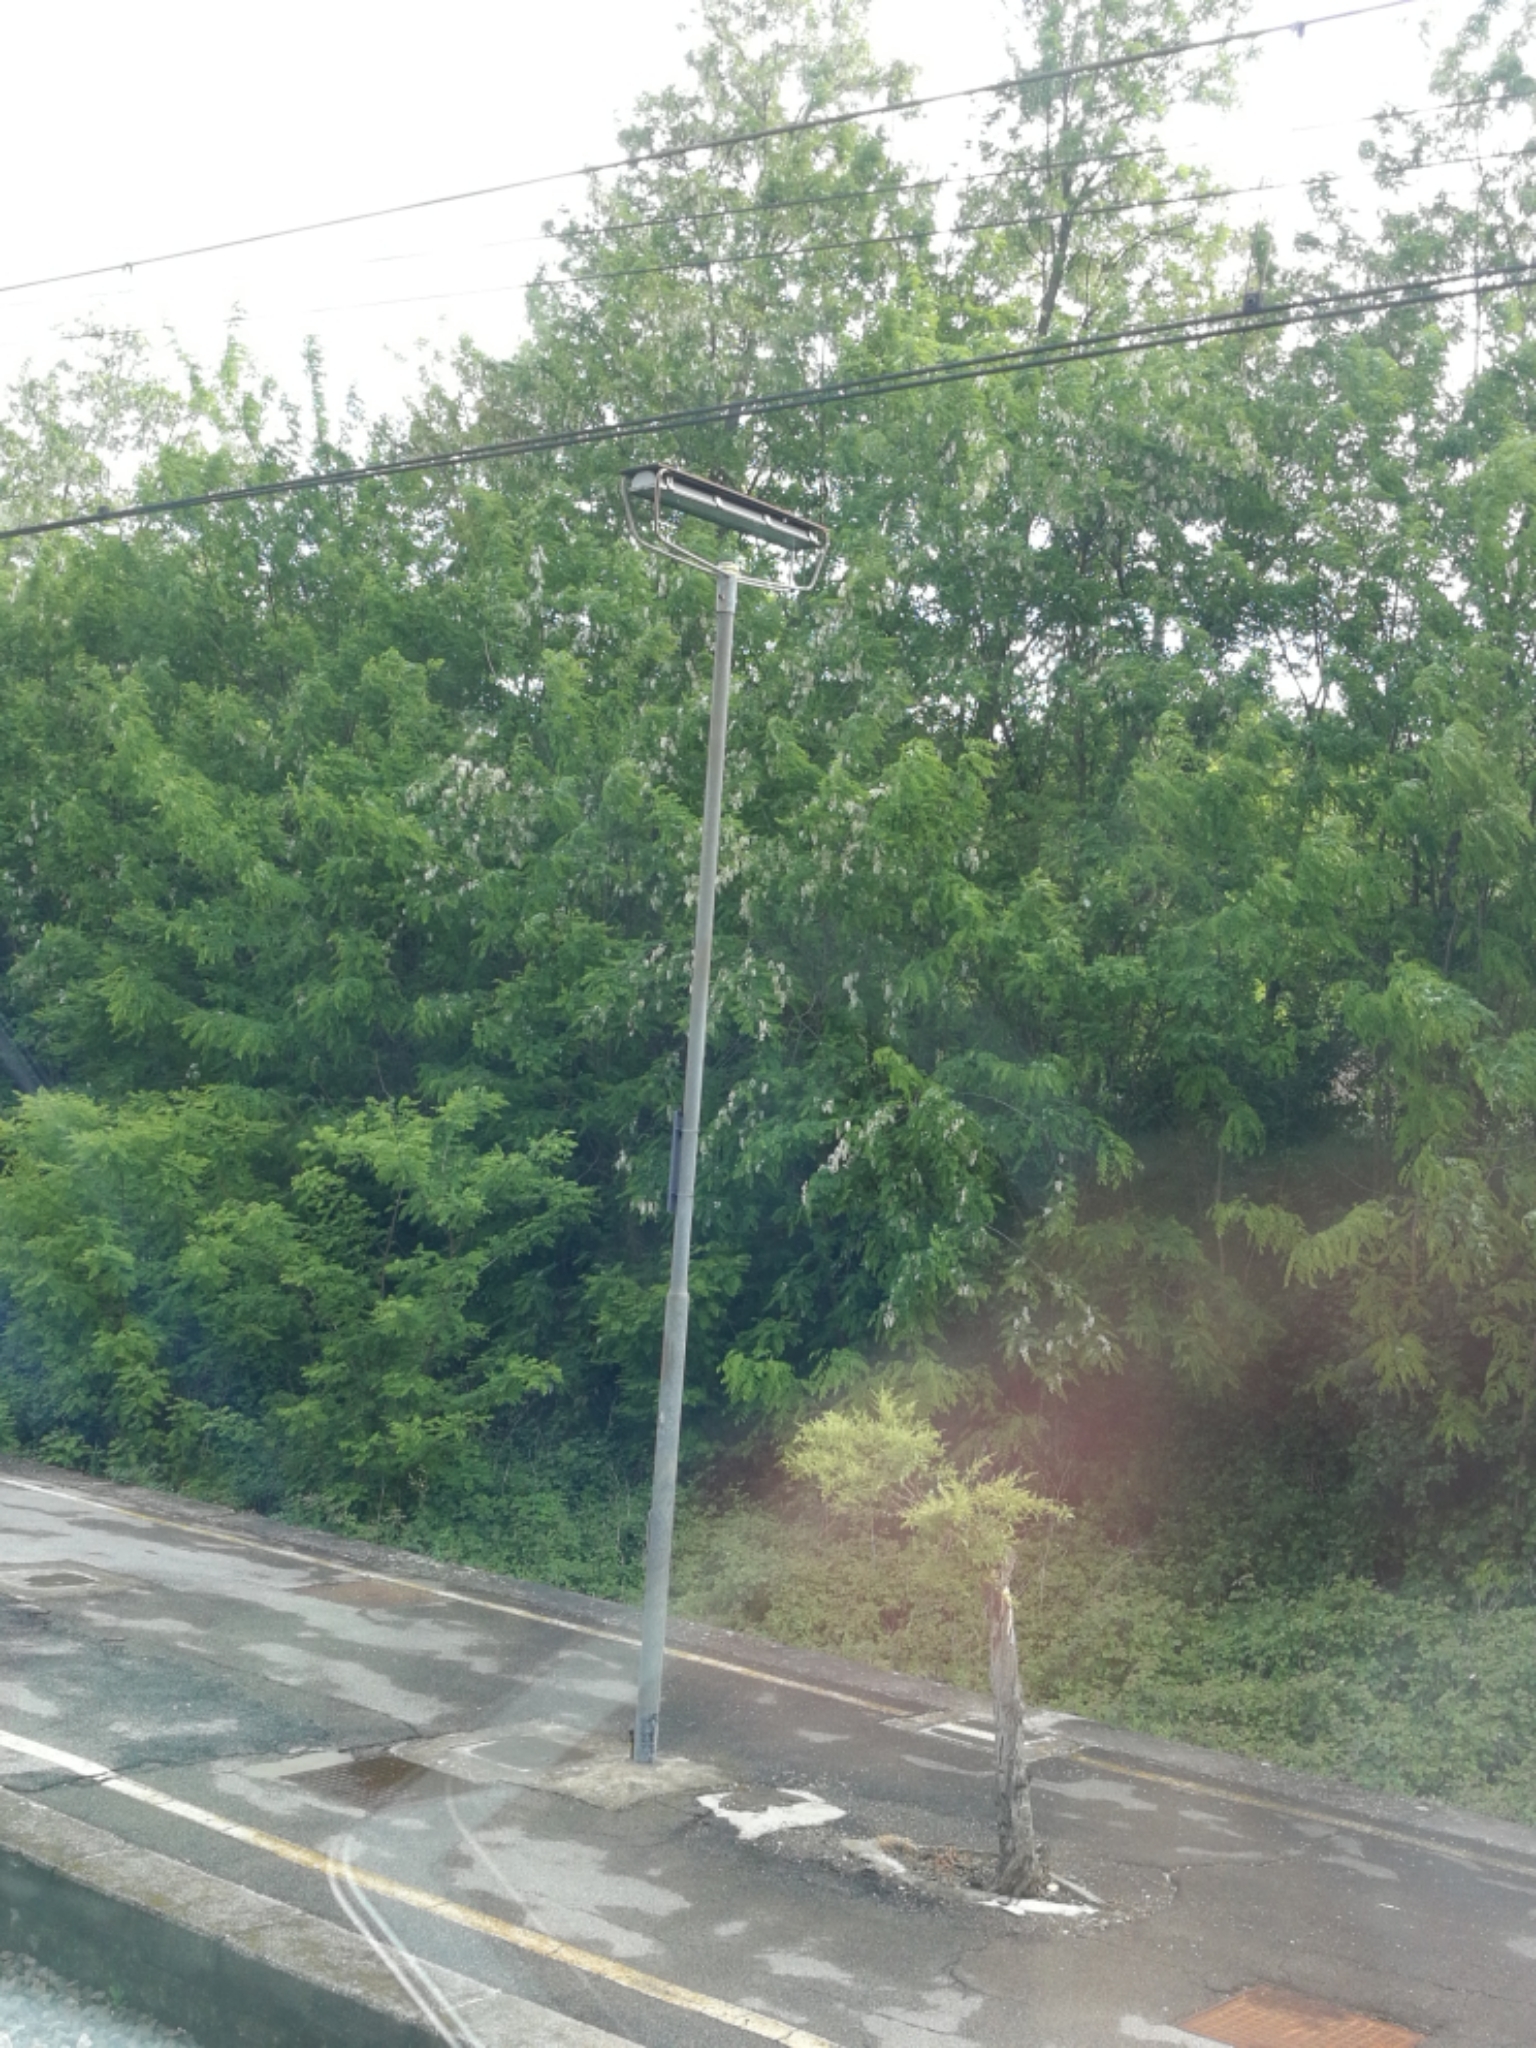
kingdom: Plantae
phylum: Tracheophyta
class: Magnoliopsida
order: Fabales
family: Fabaceae
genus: Robinia
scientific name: Robinia pseudoacacia
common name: Black locust
